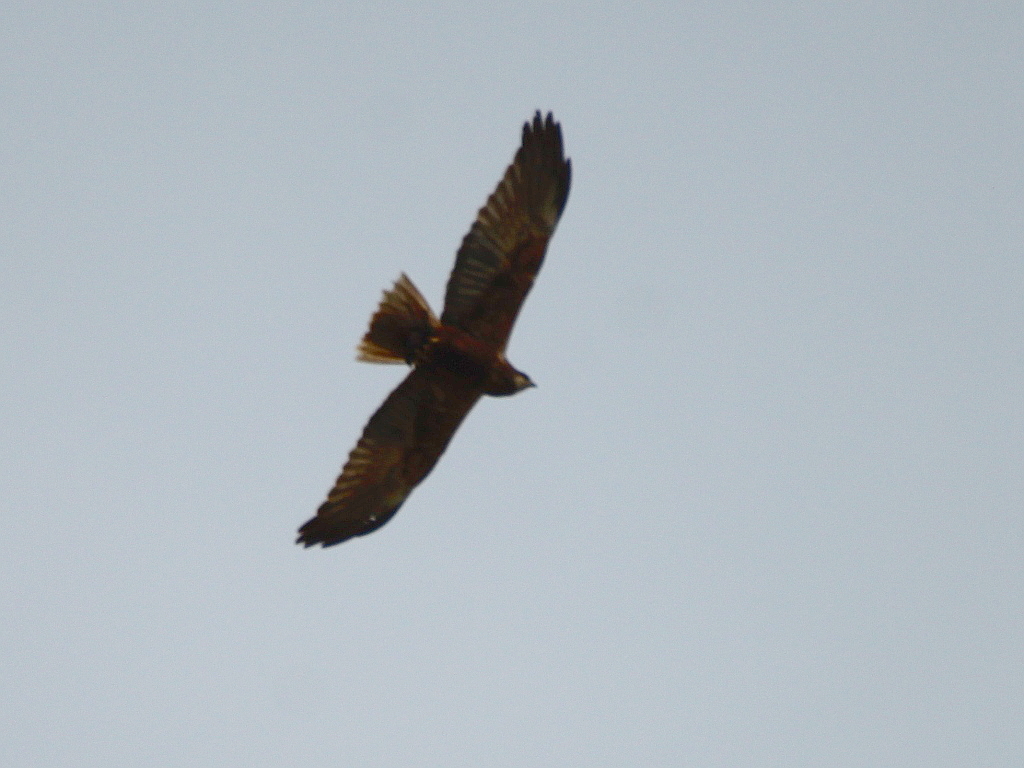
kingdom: Animalia
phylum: Chordata
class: Aves
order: Accipitriformes
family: Accipitridae
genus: Circus
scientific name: Circus aeruginosus
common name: Western marsh harrier
